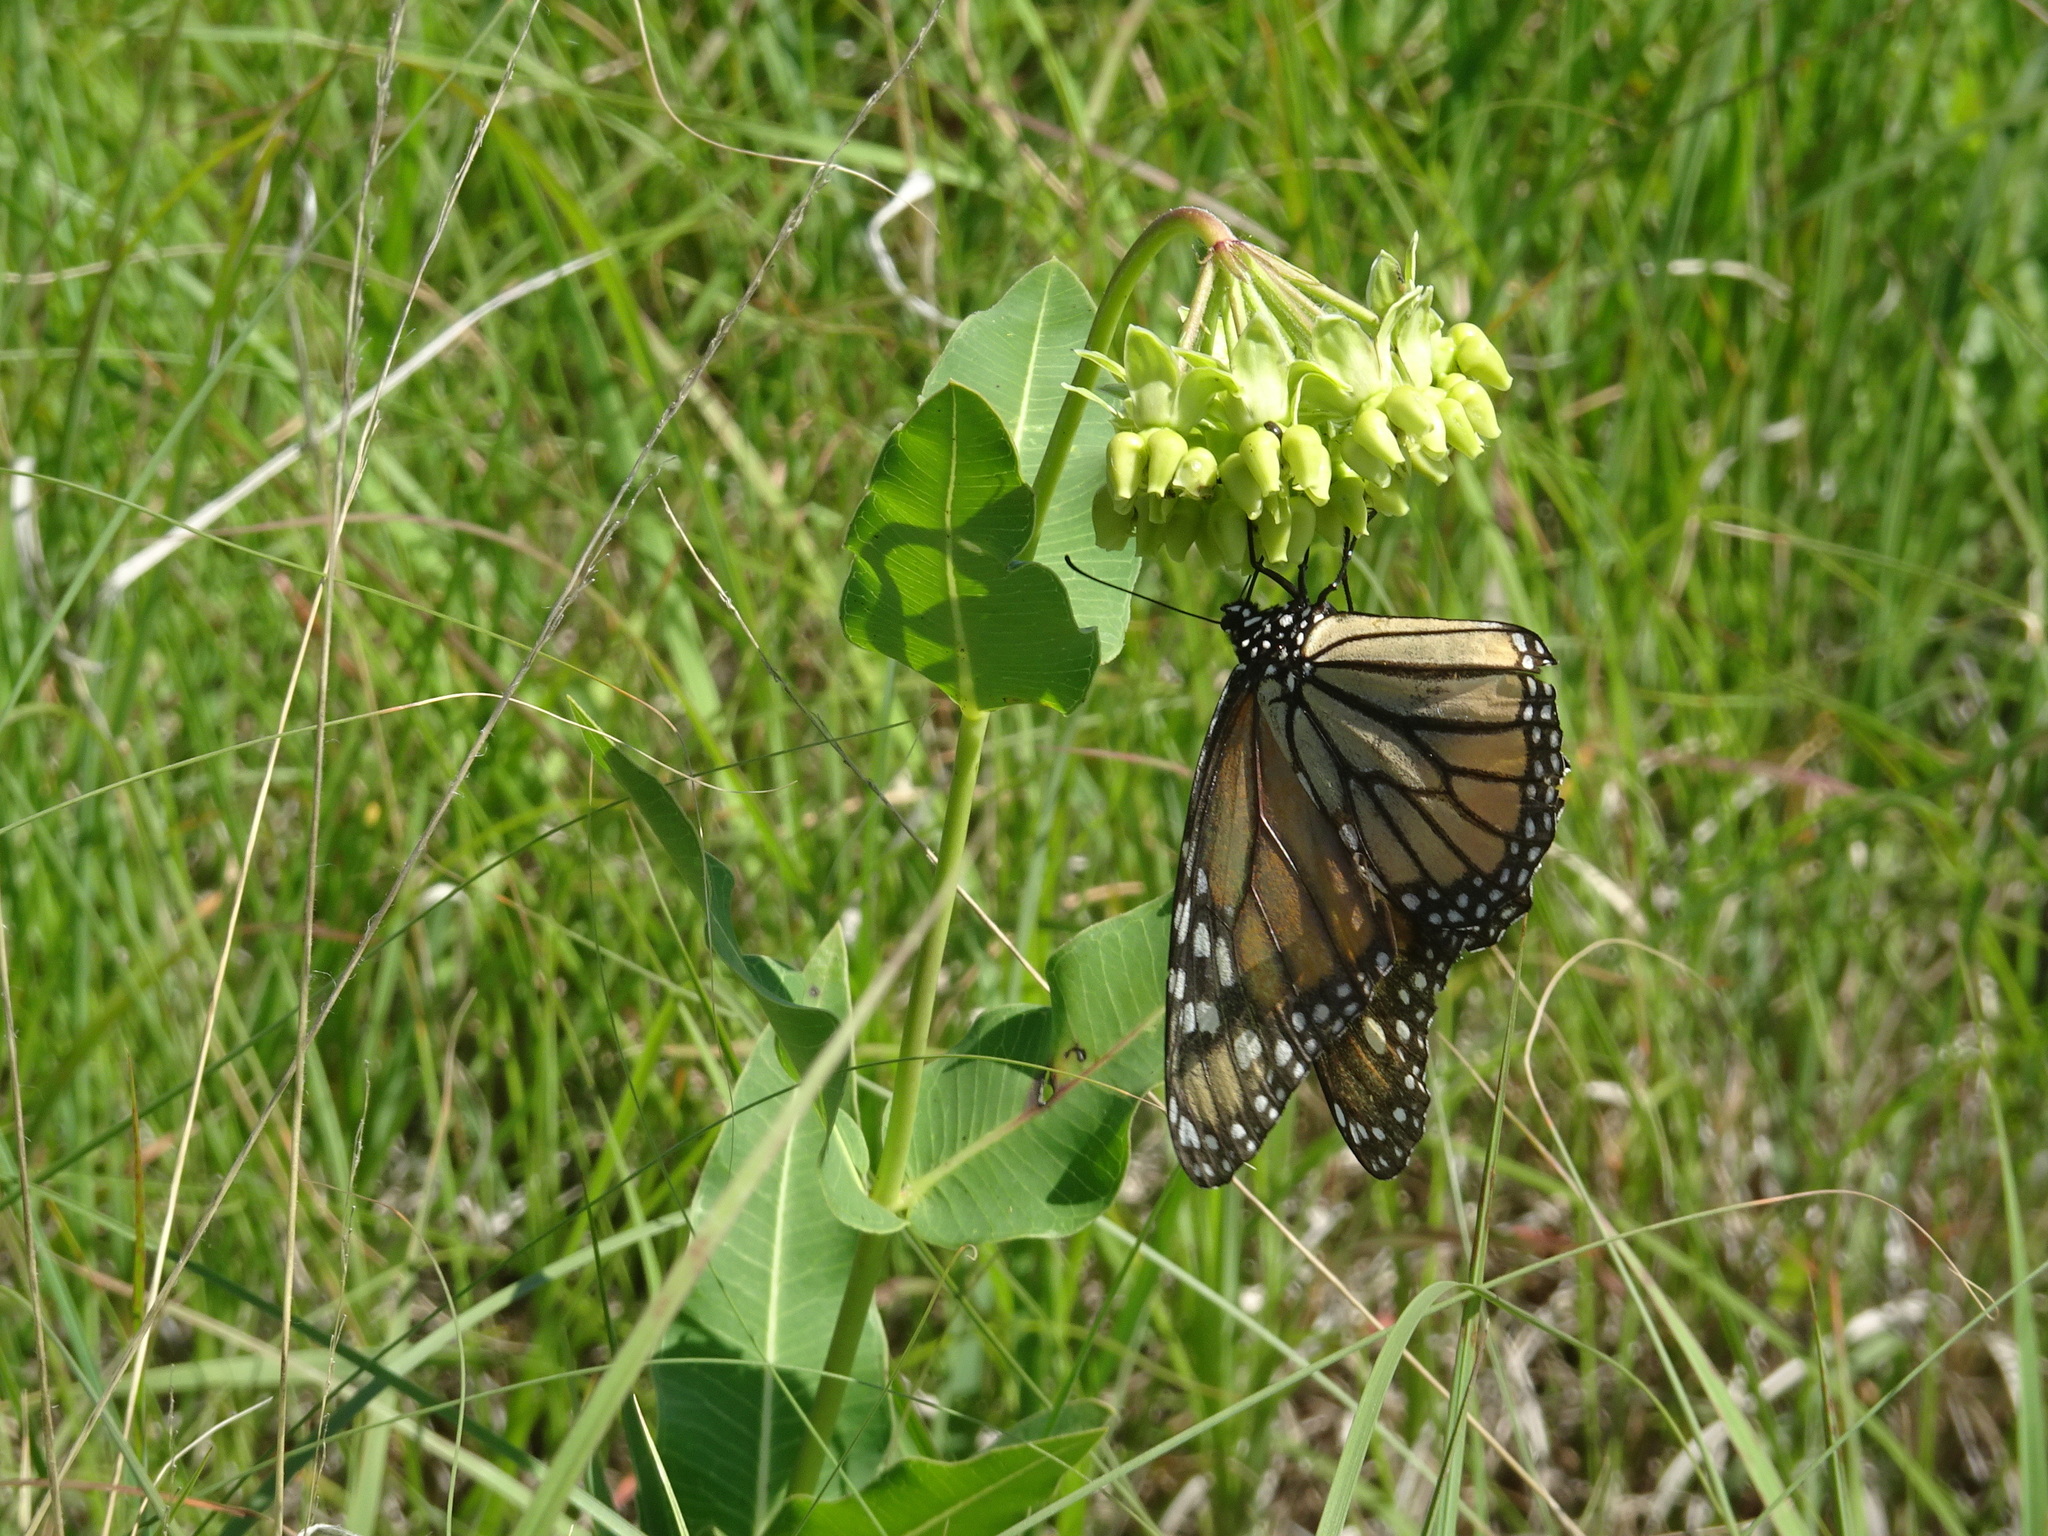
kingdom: Animalia
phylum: Arthropoda
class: Insecta
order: Lepidoptera
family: Nymphalidae
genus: Danaus
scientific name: Danaus plexippus
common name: Monarch
